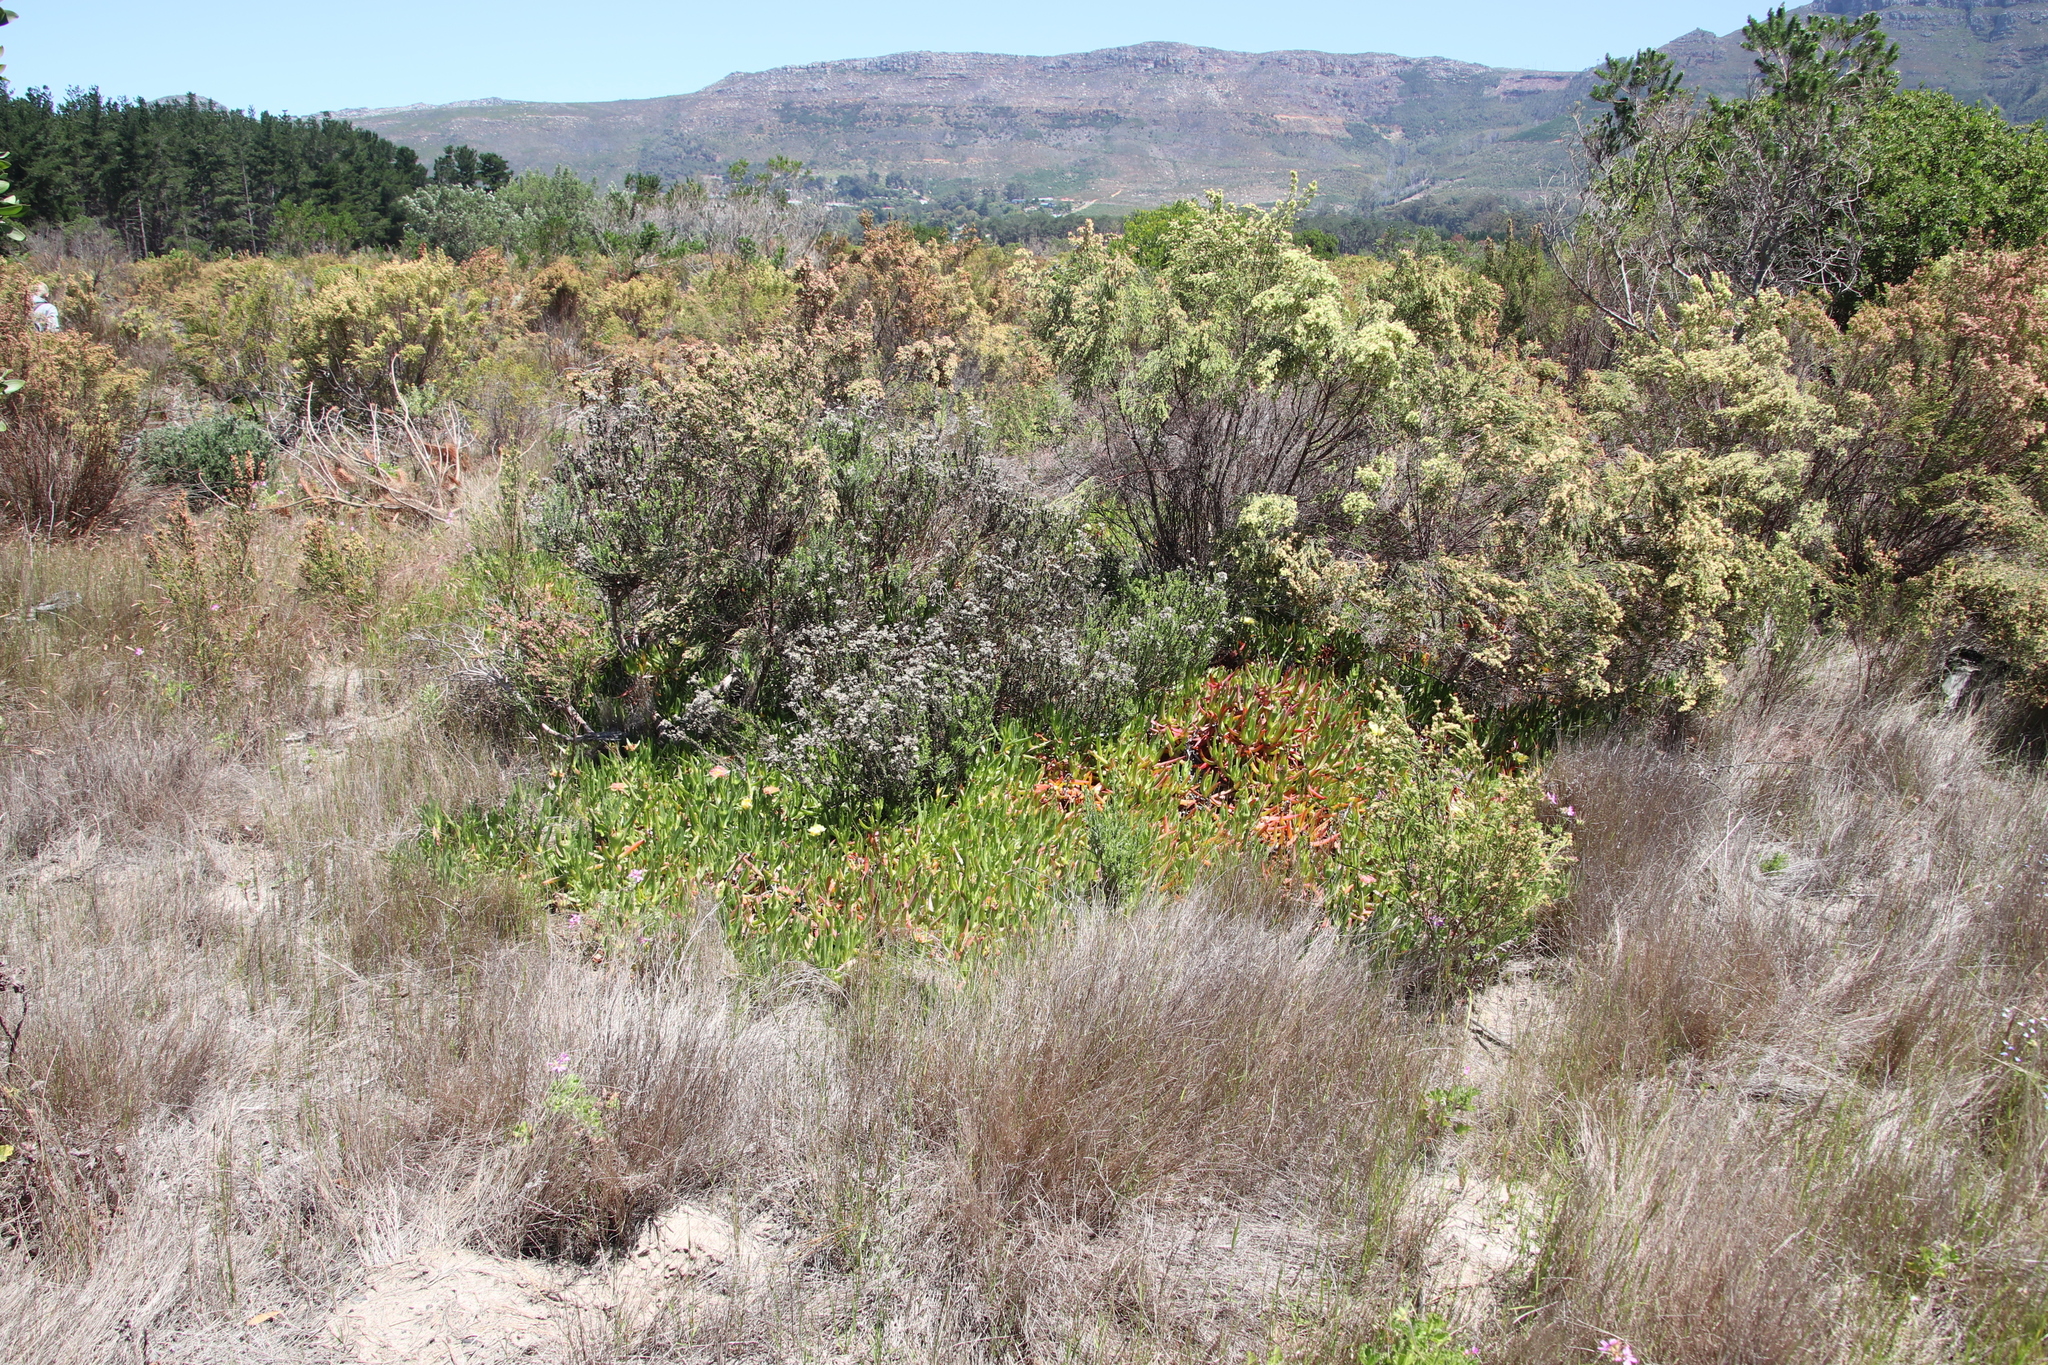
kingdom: Plantae
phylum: Tracheophyta
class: Magnoliopsida
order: Caryophyllales
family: Aizoaceae
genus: Carpobrotus
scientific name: Carpobrotus edulis
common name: Hottentot-fig
